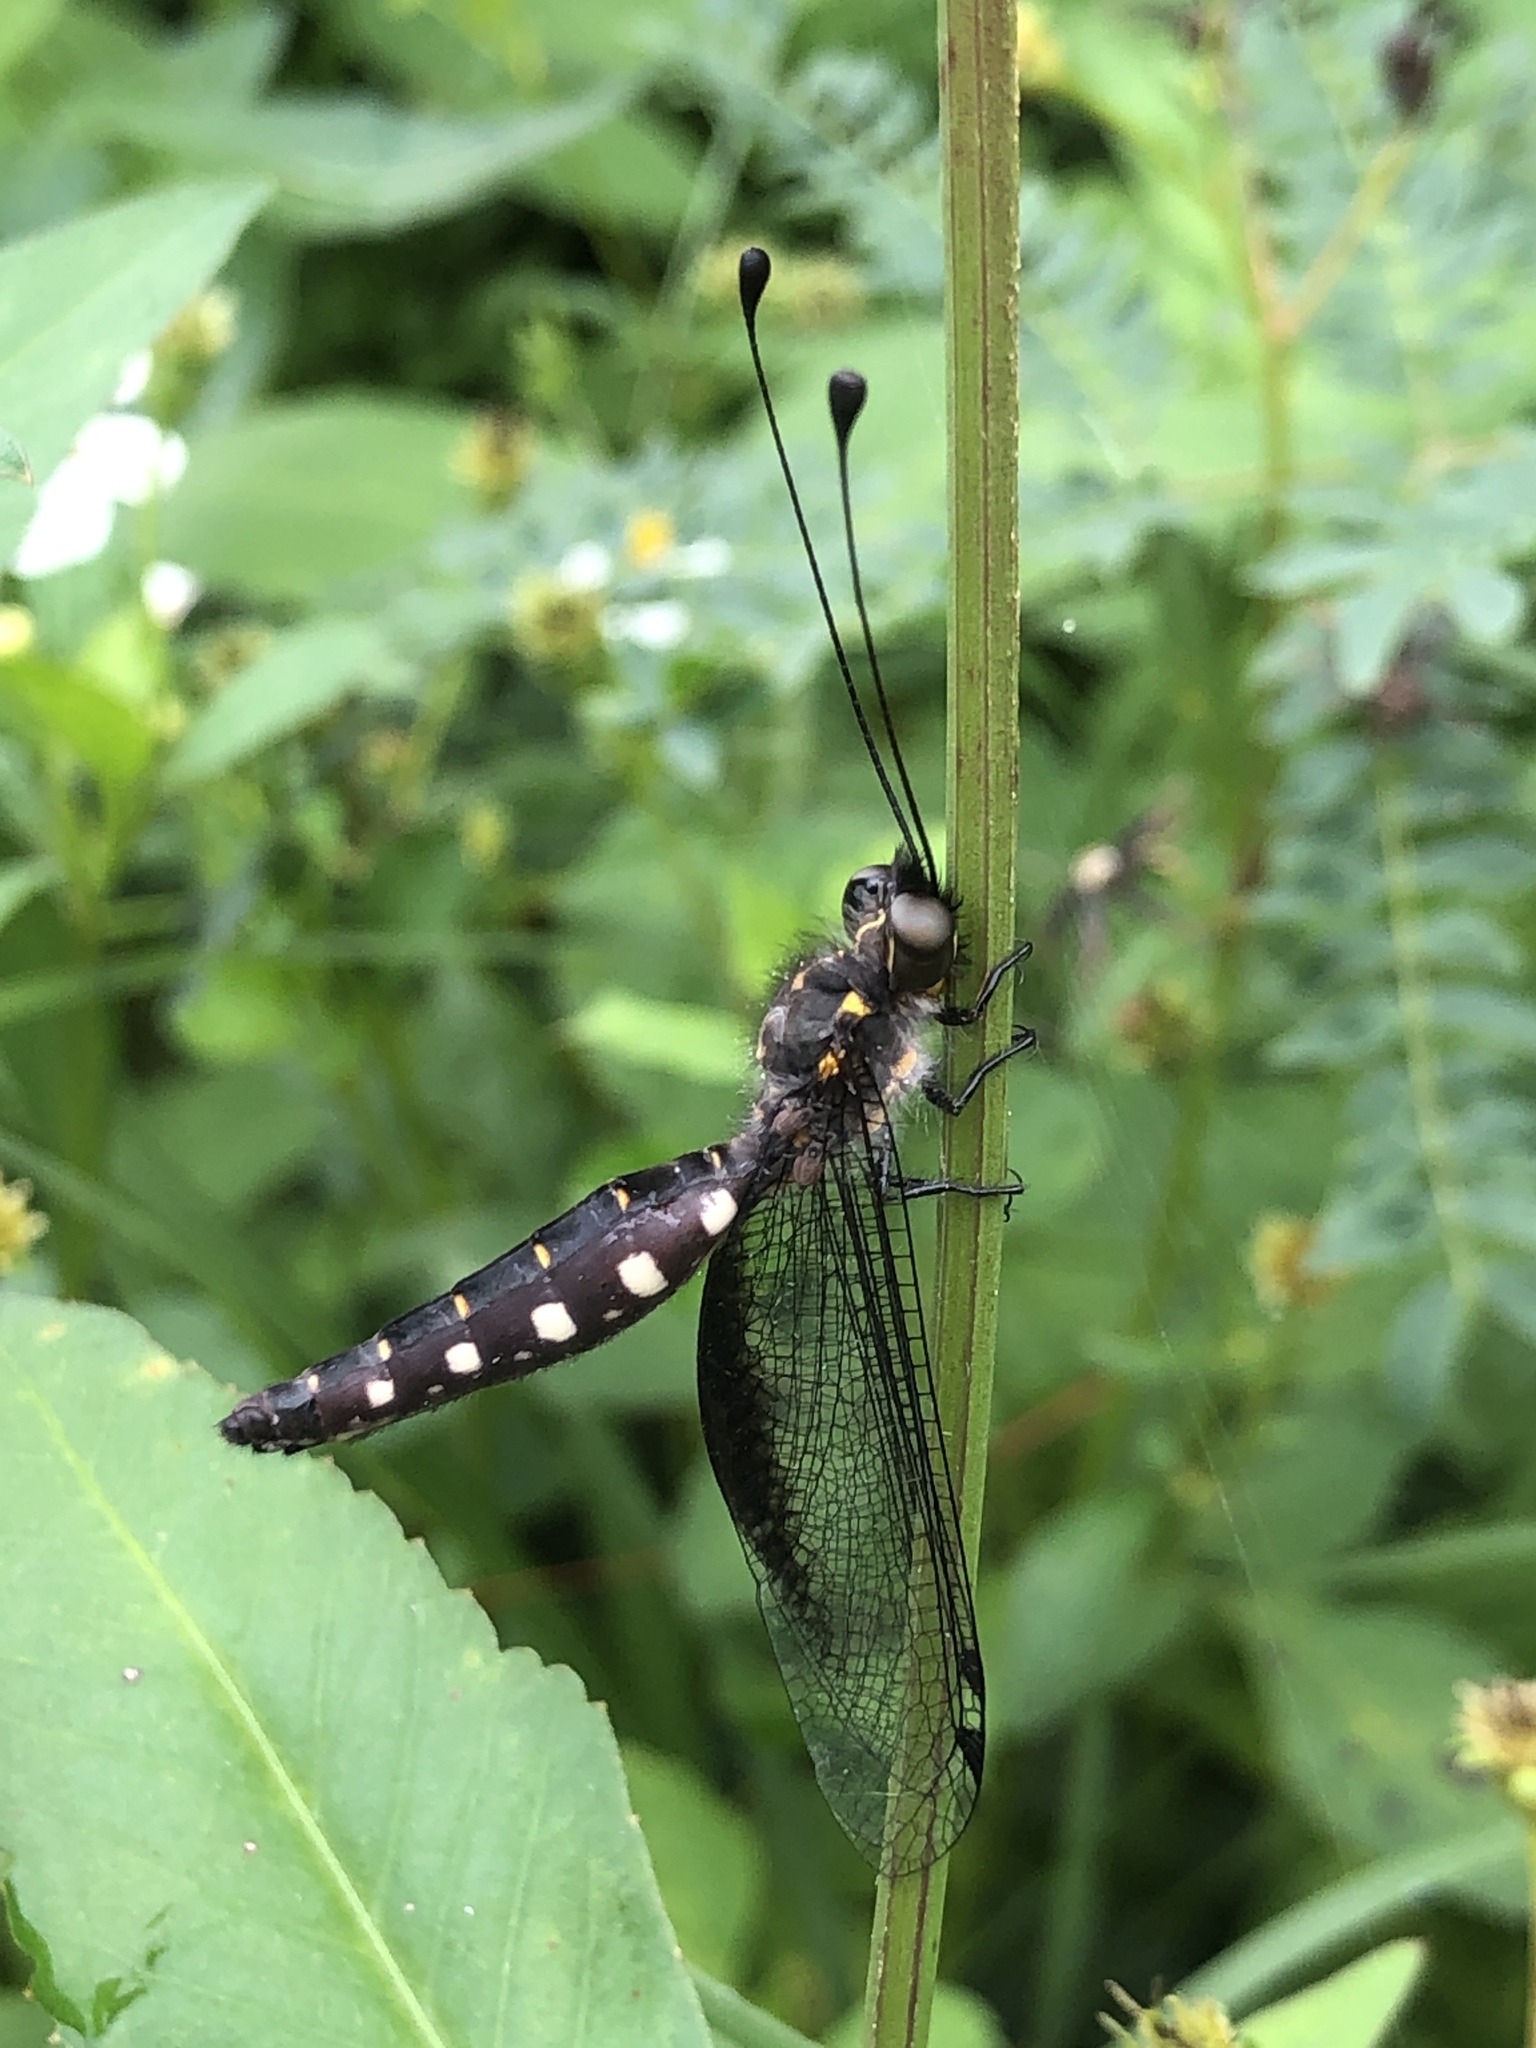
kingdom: Animalia
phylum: Arthropoda
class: Insecta
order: Neuroptera
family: Ascalaphidae
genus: Suphalomitus
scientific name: Suphalomitus okinavensis
